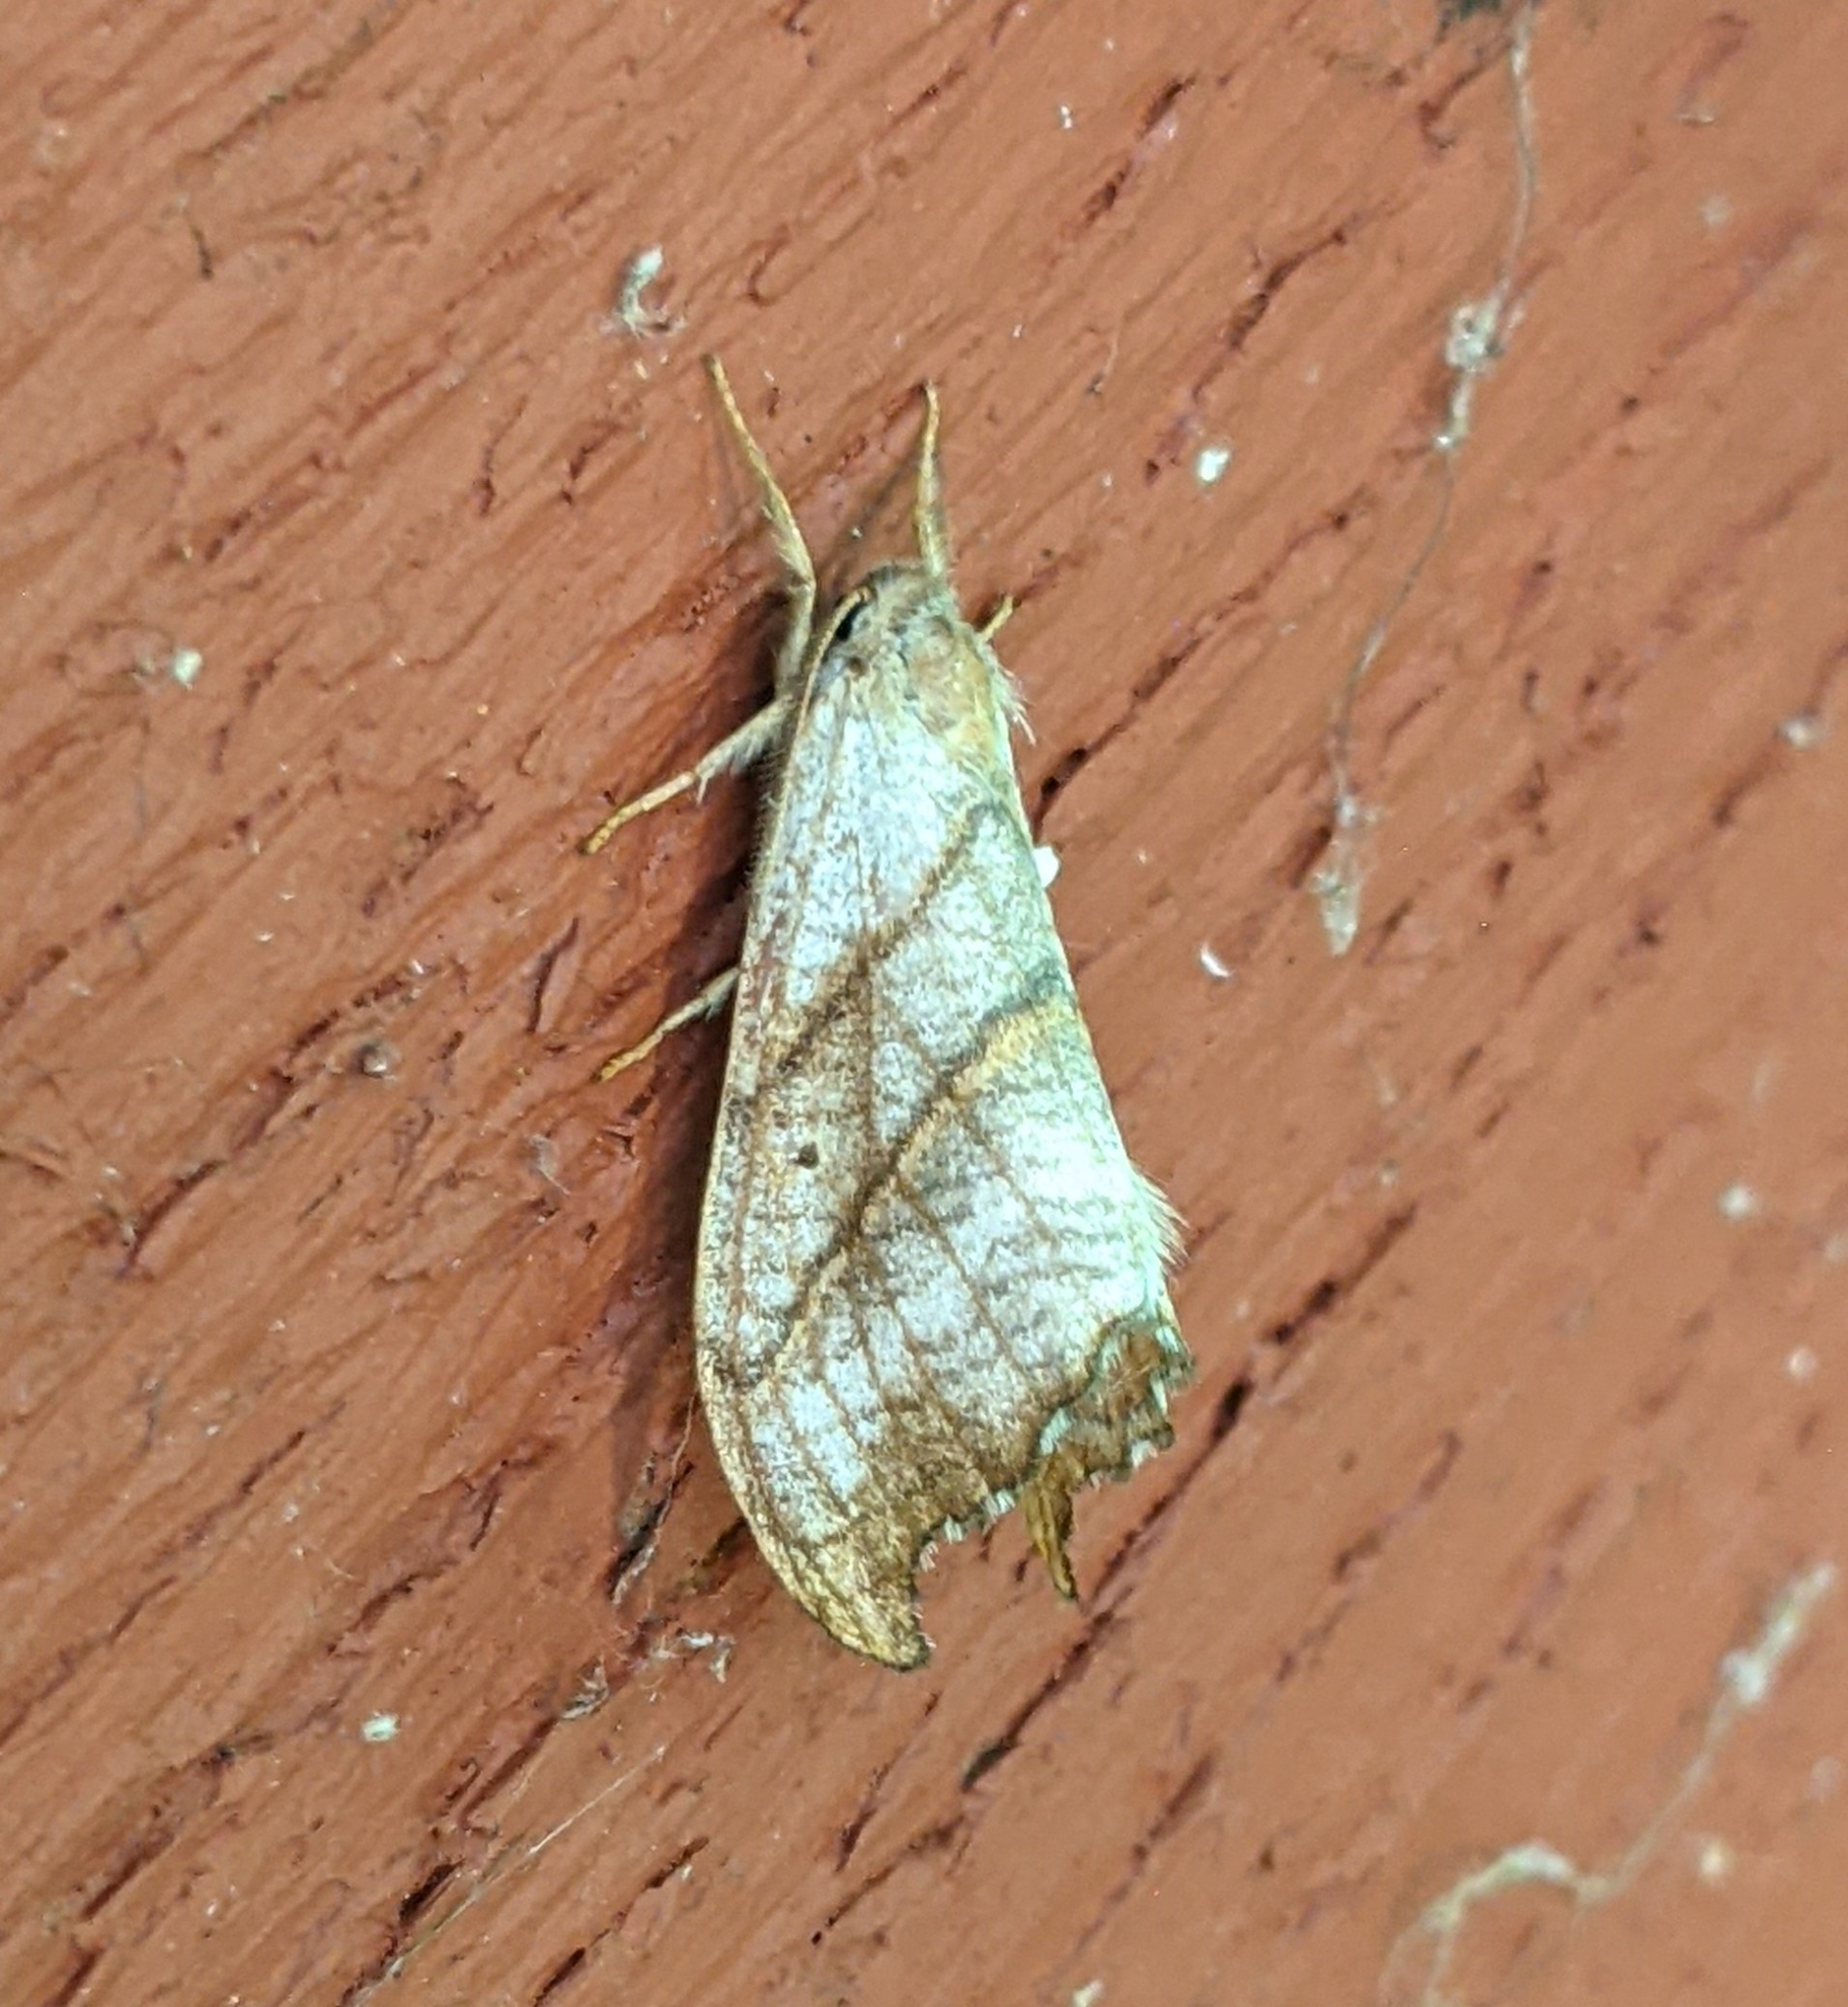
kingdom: Animalia
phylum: Arthropoda
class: Insecta
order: Lepidoptera
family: Drepanidae
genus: Falcaria
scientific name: Falcaria bilineata
